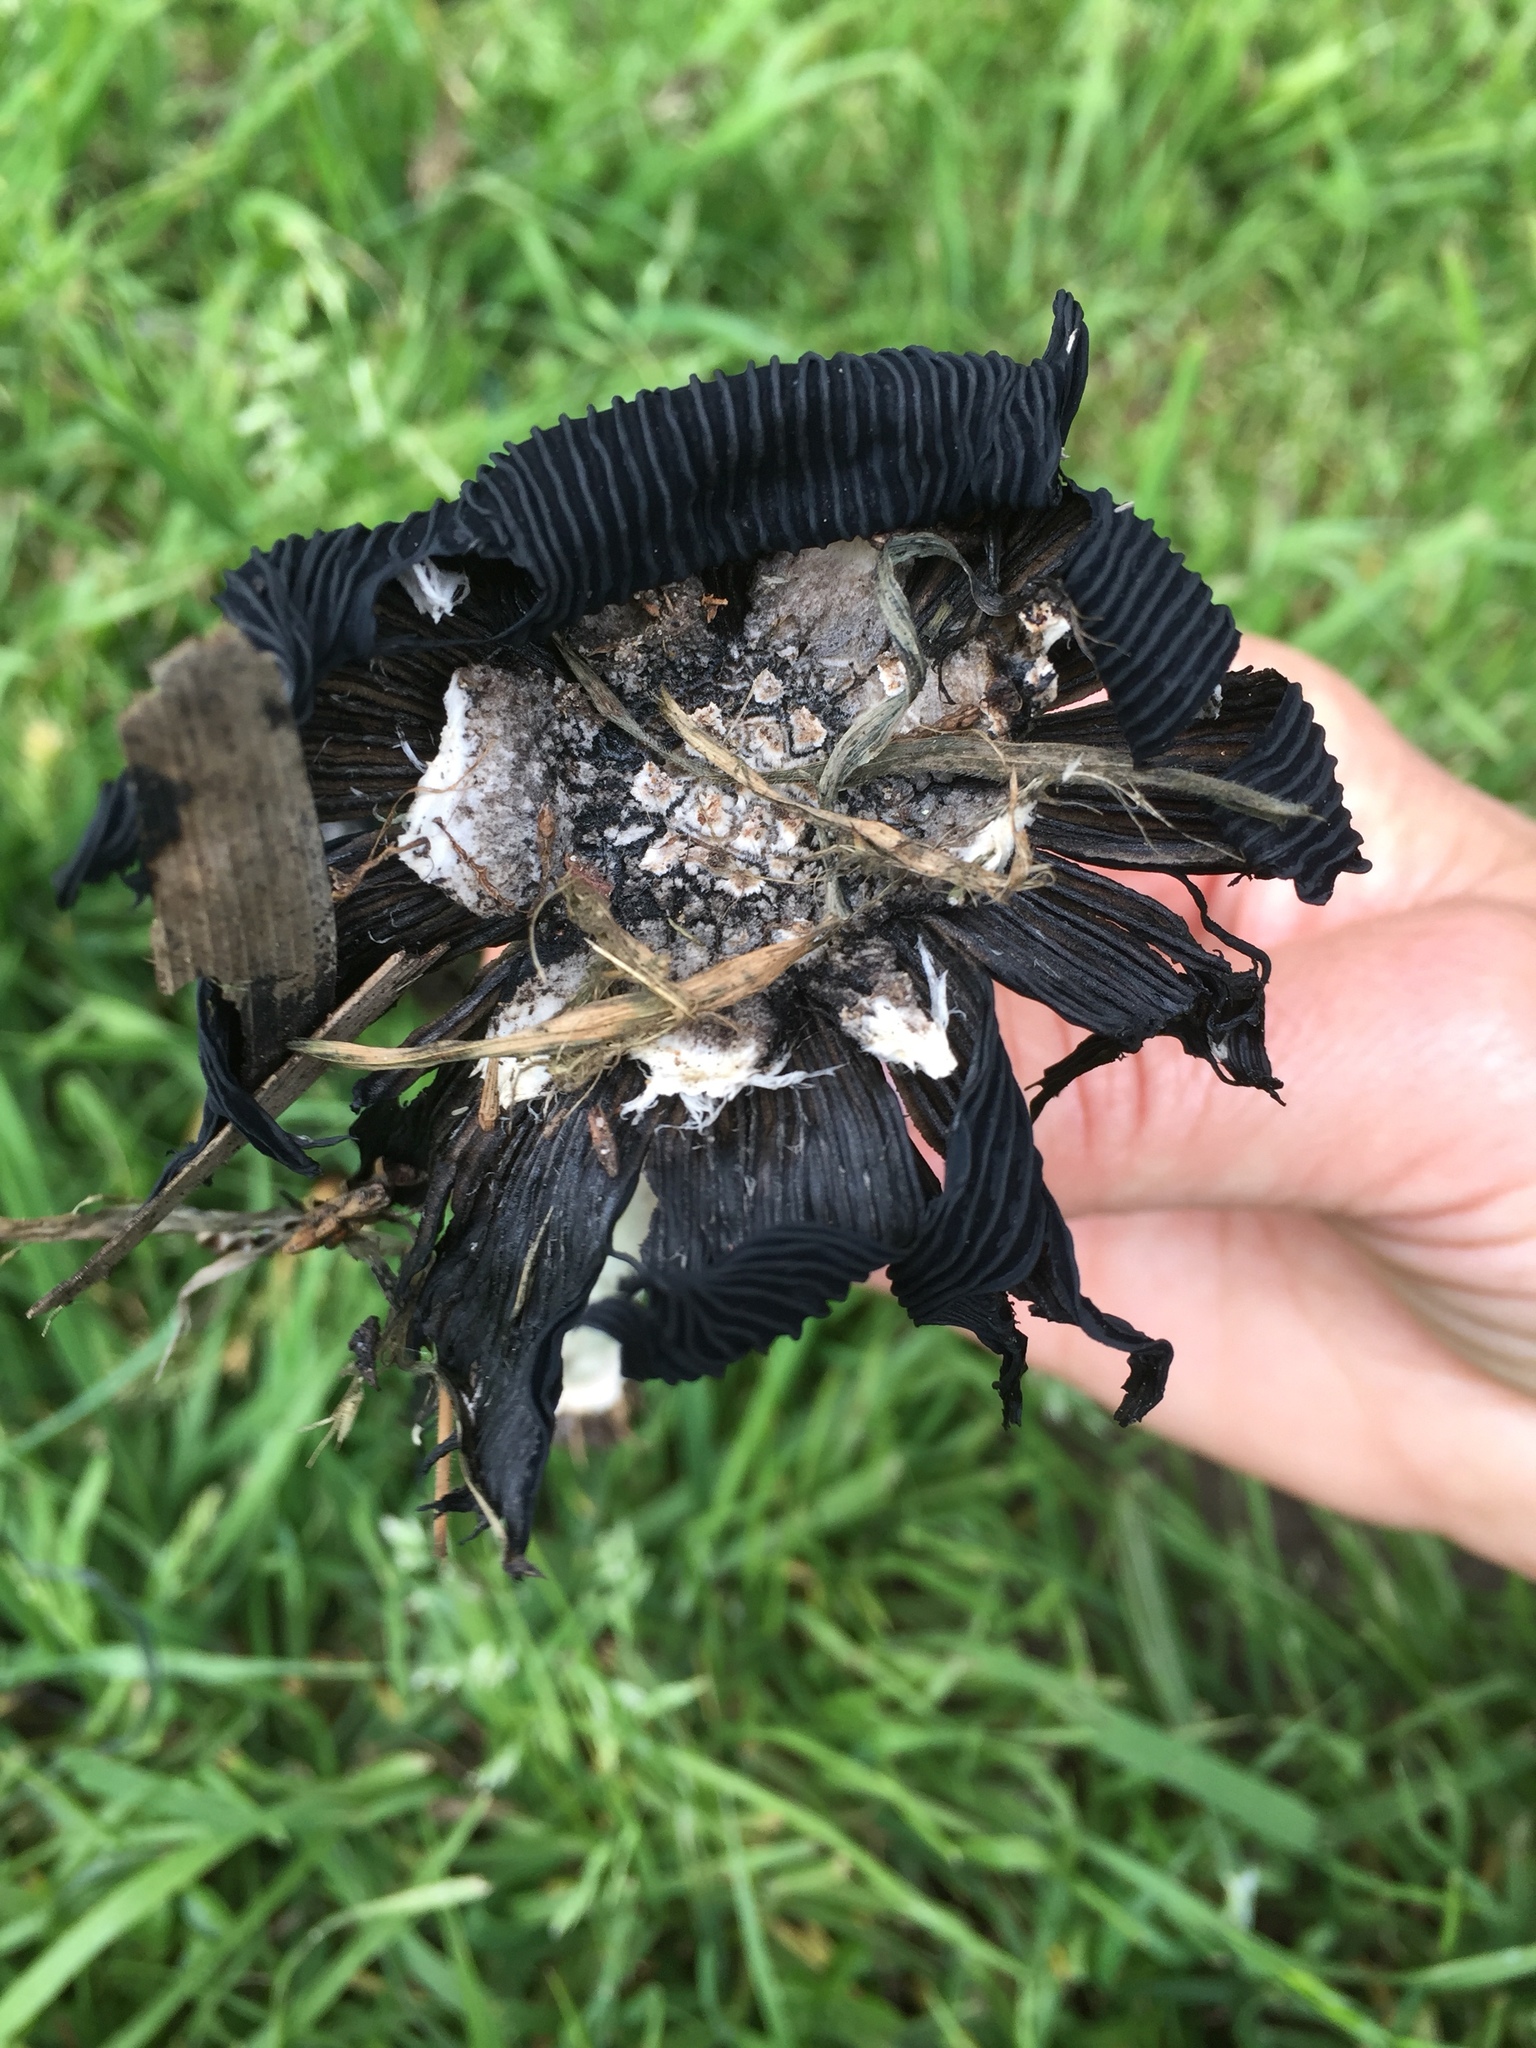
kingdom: Fungi
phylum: Basidiomycota
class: Agaricomycetes
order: Agaricales
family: Psathyrellaceae
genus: Coprinopsis
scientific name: Coprinopsis atramentaria
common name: Common ink-cap
